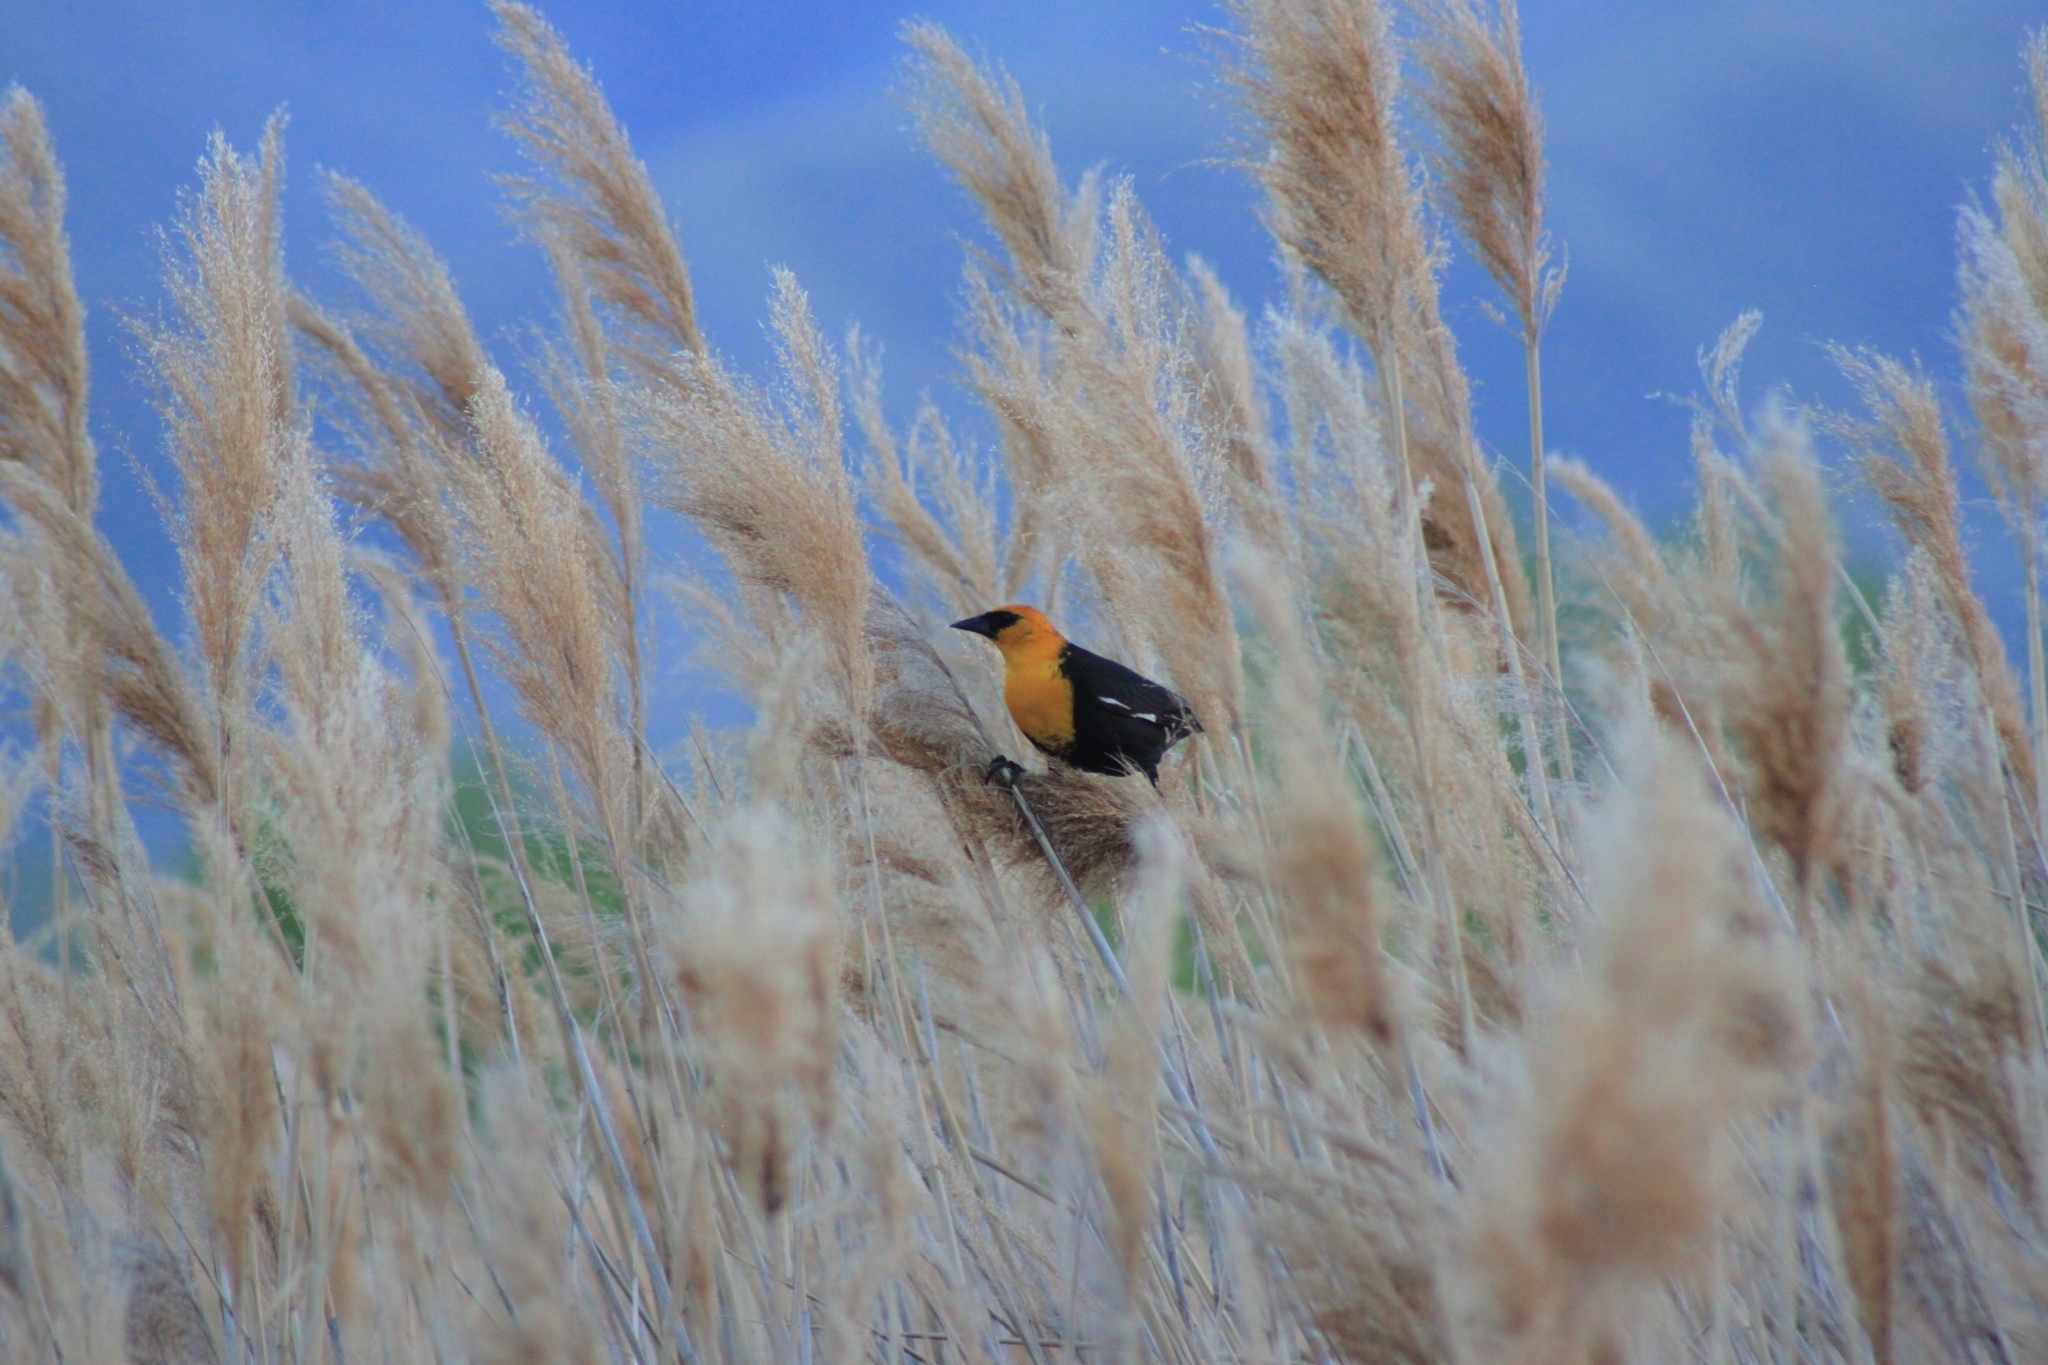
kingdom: Animalia
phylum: Chordata
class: Aves
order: Passeriformes
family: Icteridae
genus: Xanthocephalus
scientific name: Xanthocephalus xanthocephalus
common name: Yellow-headed blackbird
